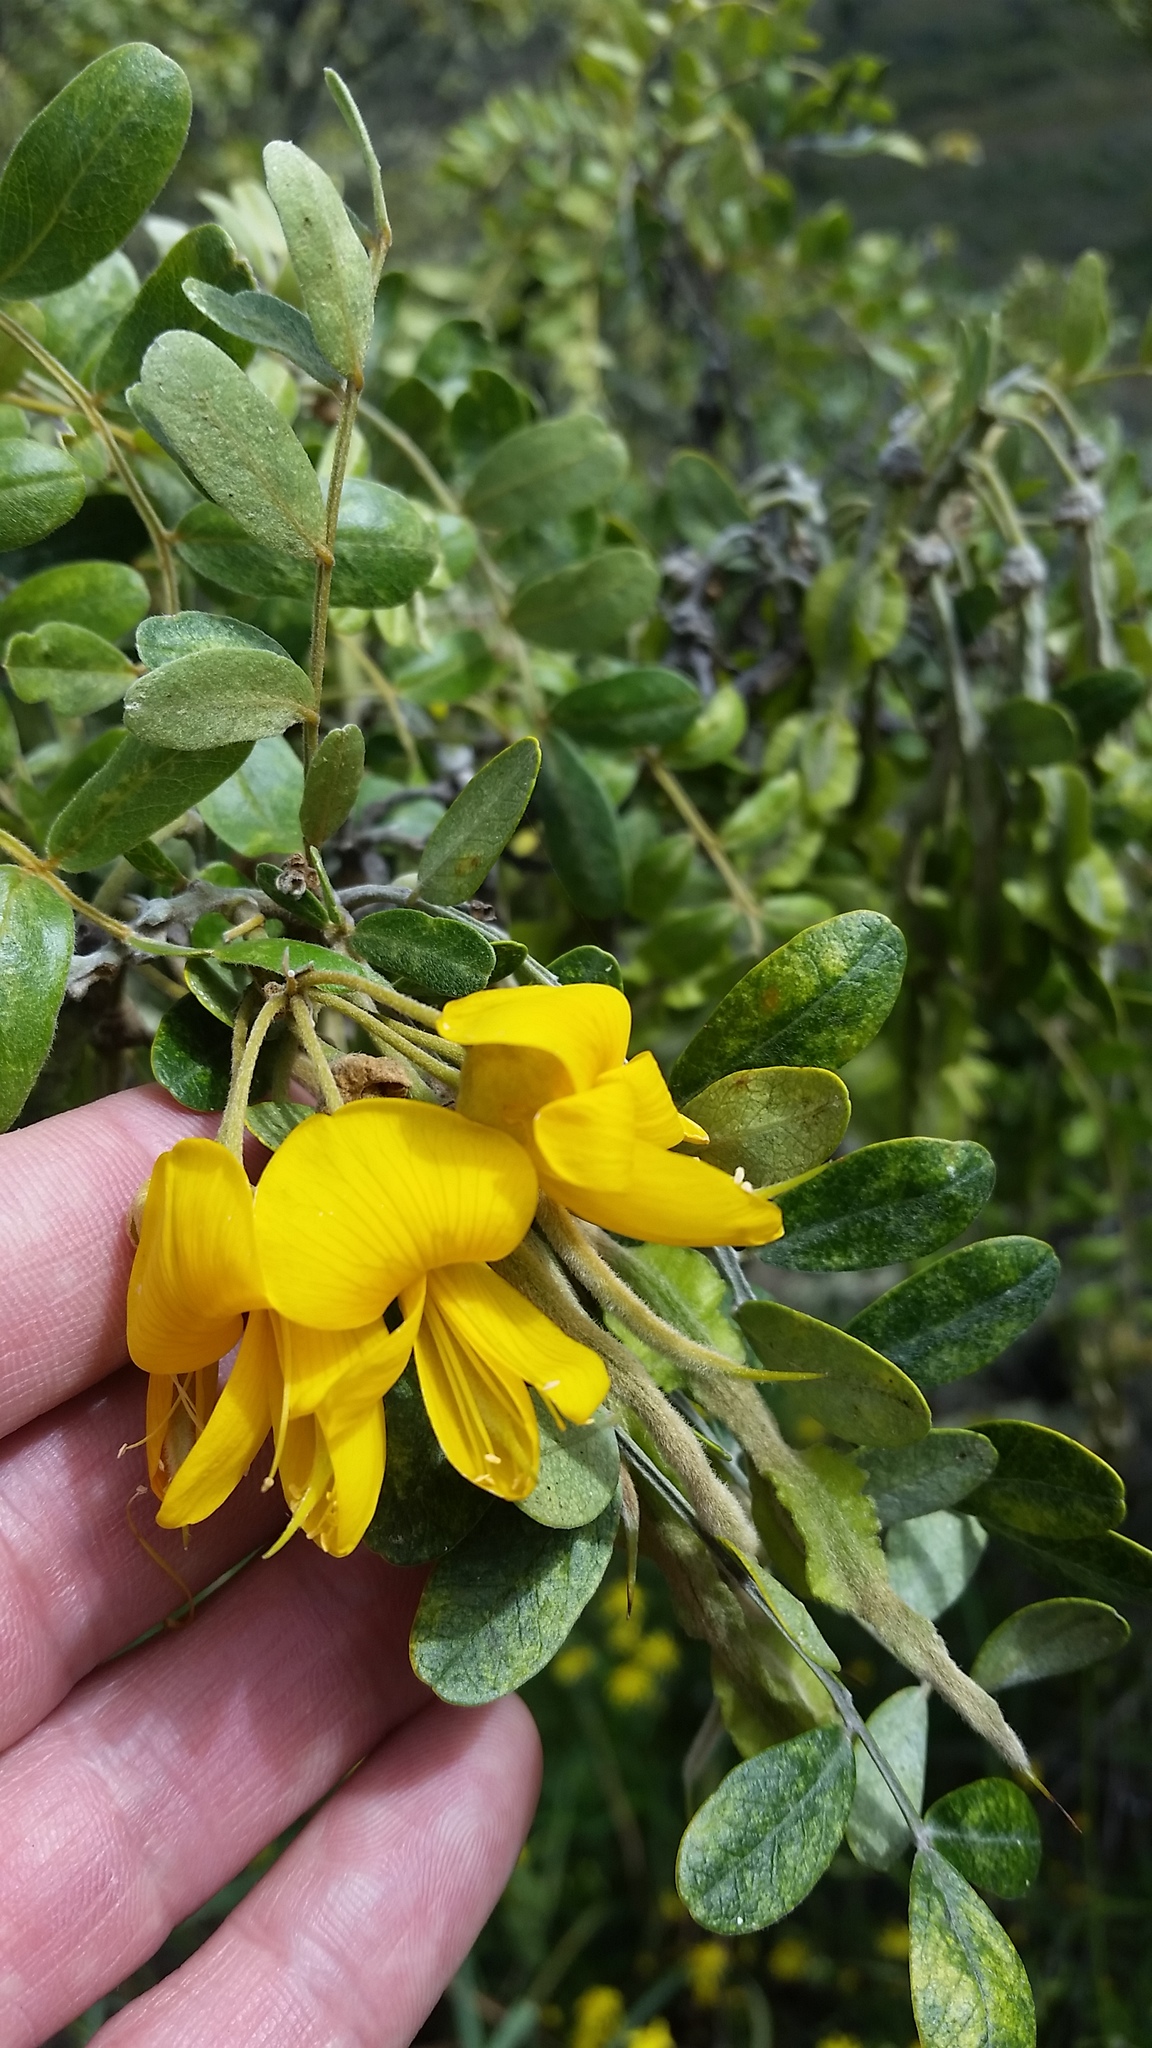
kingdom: Plantae
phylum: Tracheophyta
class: Magnoliopsida
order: Fabales
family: Fabaceae
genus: Sophora
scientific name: Sophora chrysophylla
